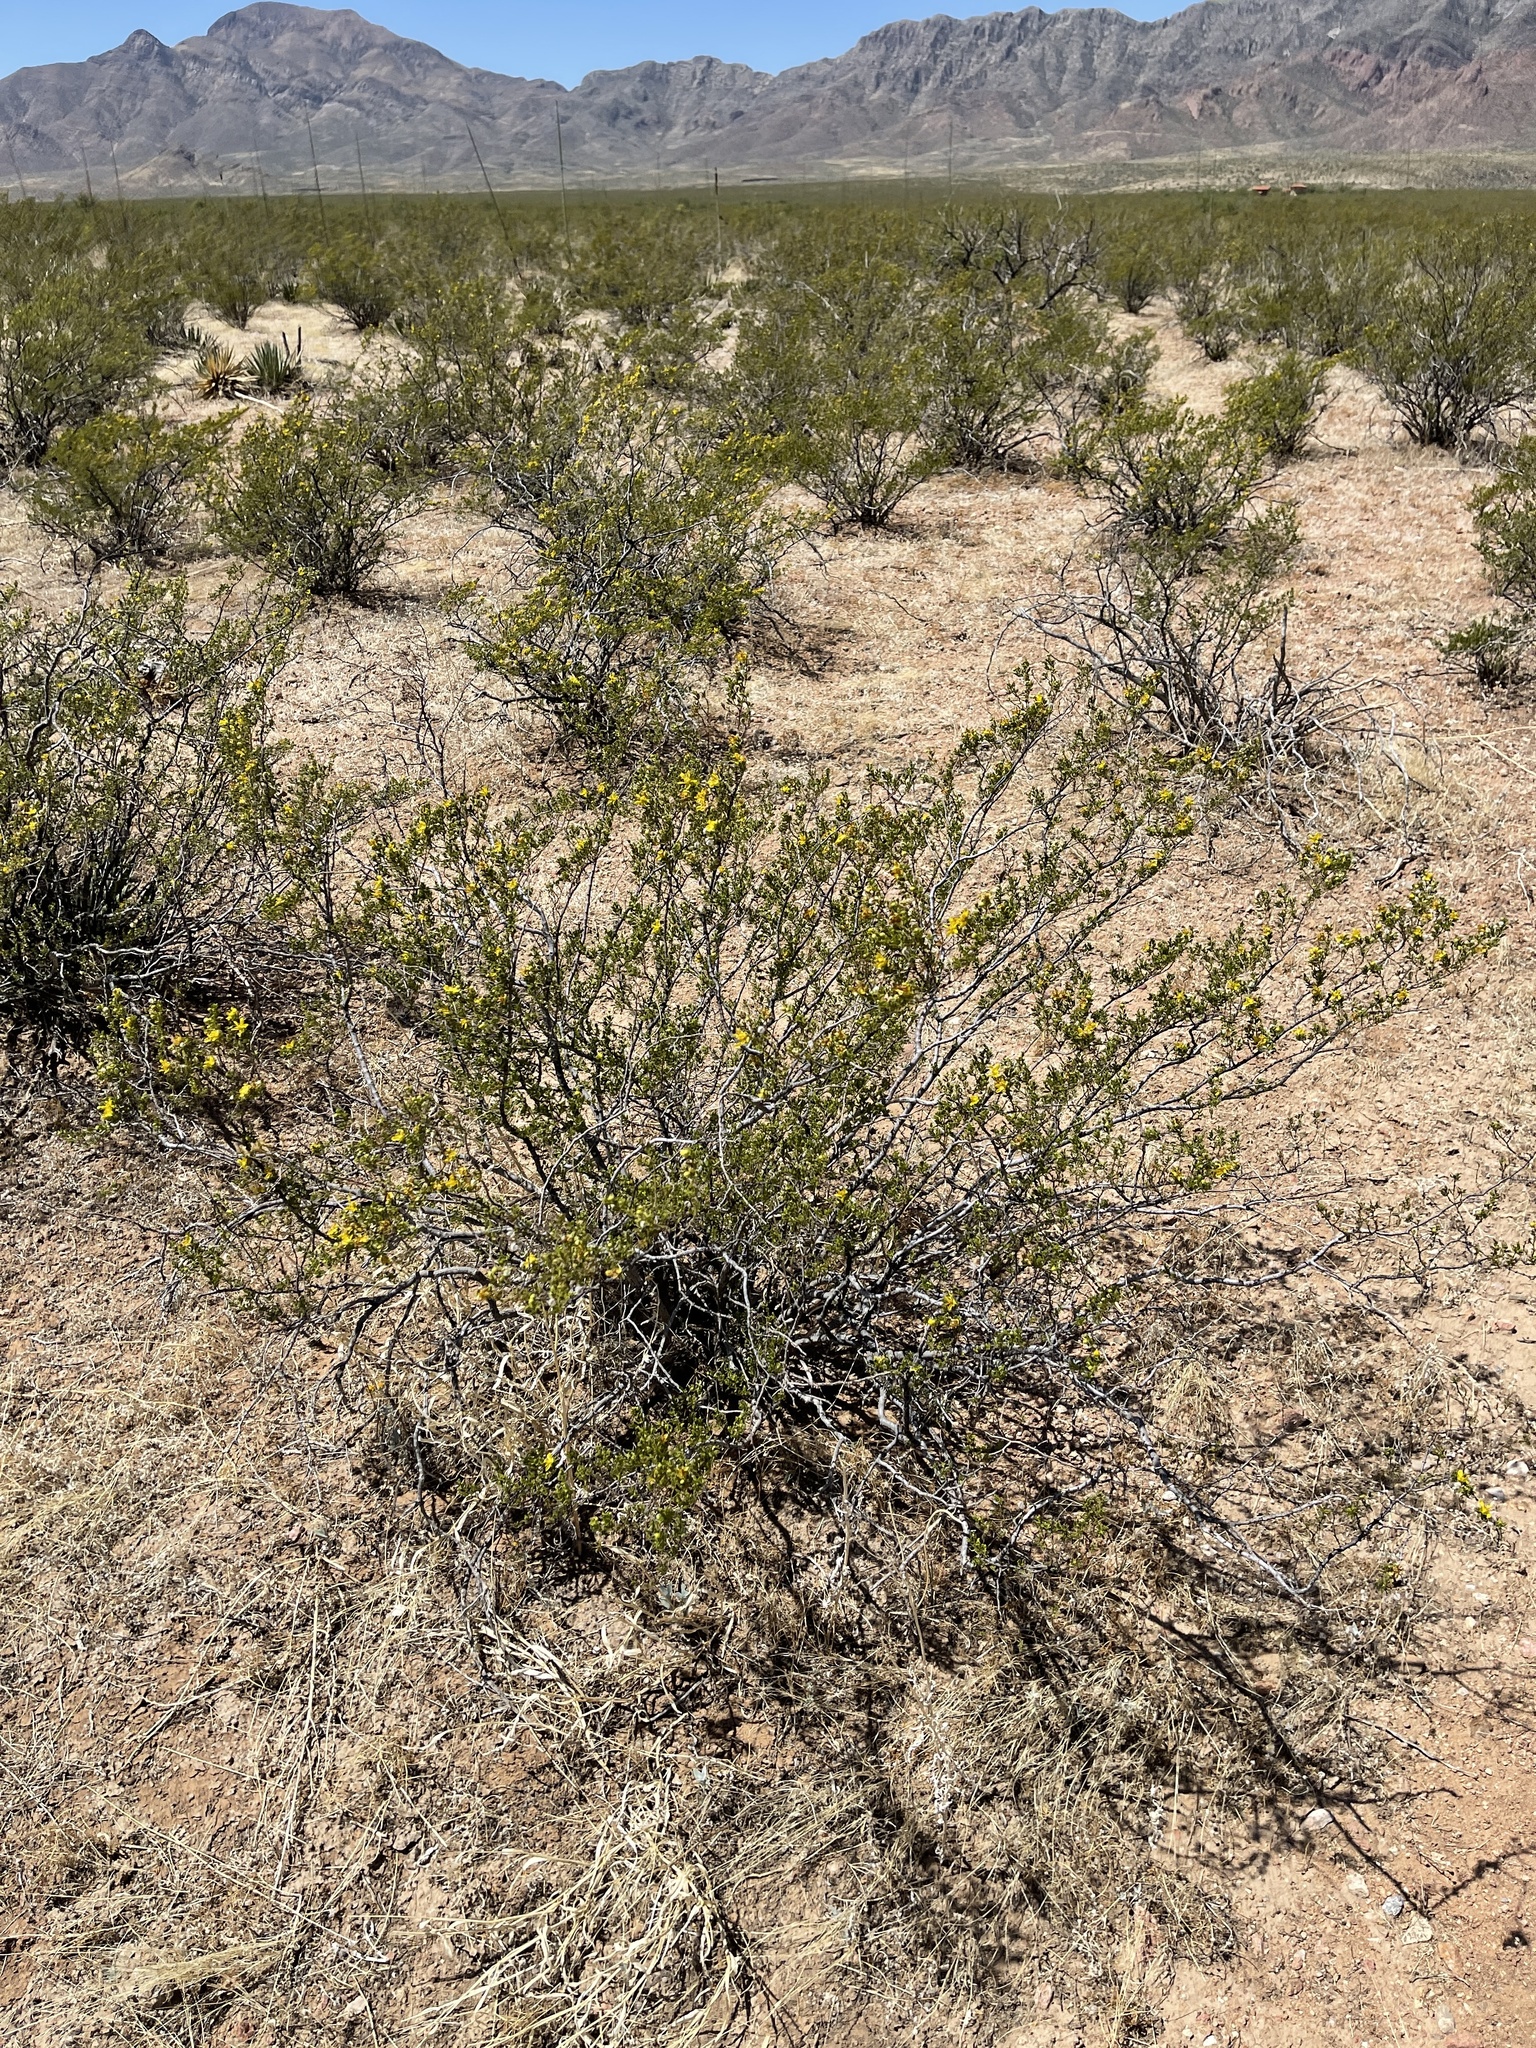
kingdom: Plantae
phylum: Tracheophyta
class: Magnoliopsida
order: Zygophyllales
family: Zygophyllaceae
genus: Larrea
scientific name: Larrea tridentata
